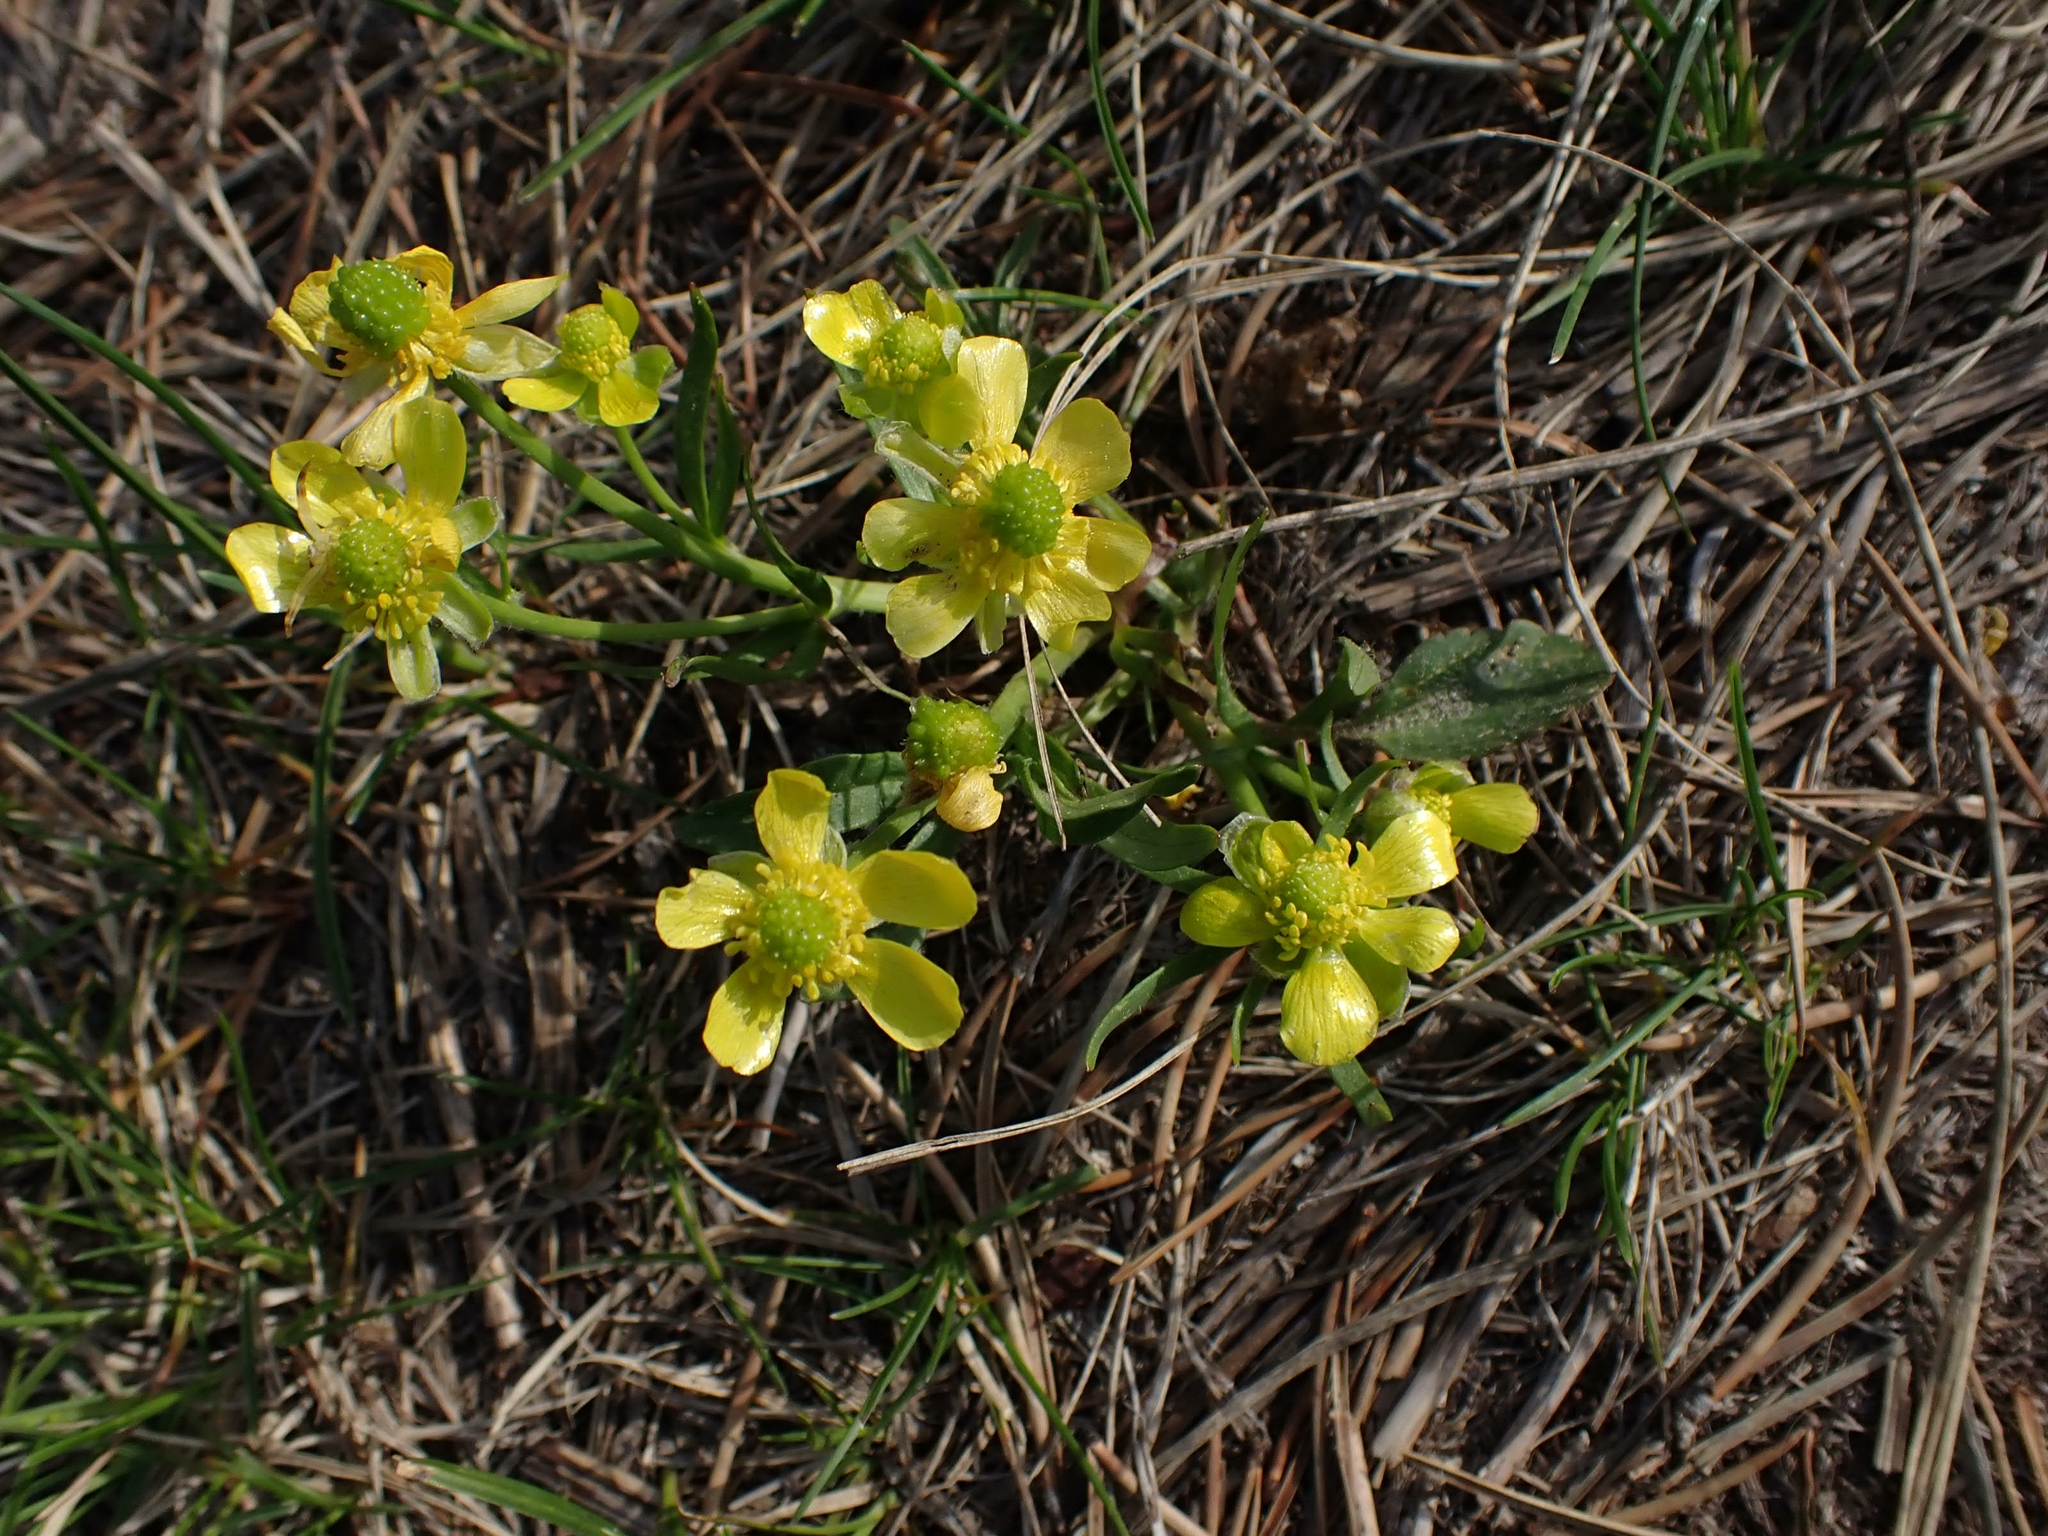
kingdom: Plantae
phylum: Tracheophyta
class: Magnoliopsida
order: Ranunculales
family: Ranunculaceae
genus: Ranunculus
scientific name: Ranunculus rhomboideus
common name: Prairie buttercup
